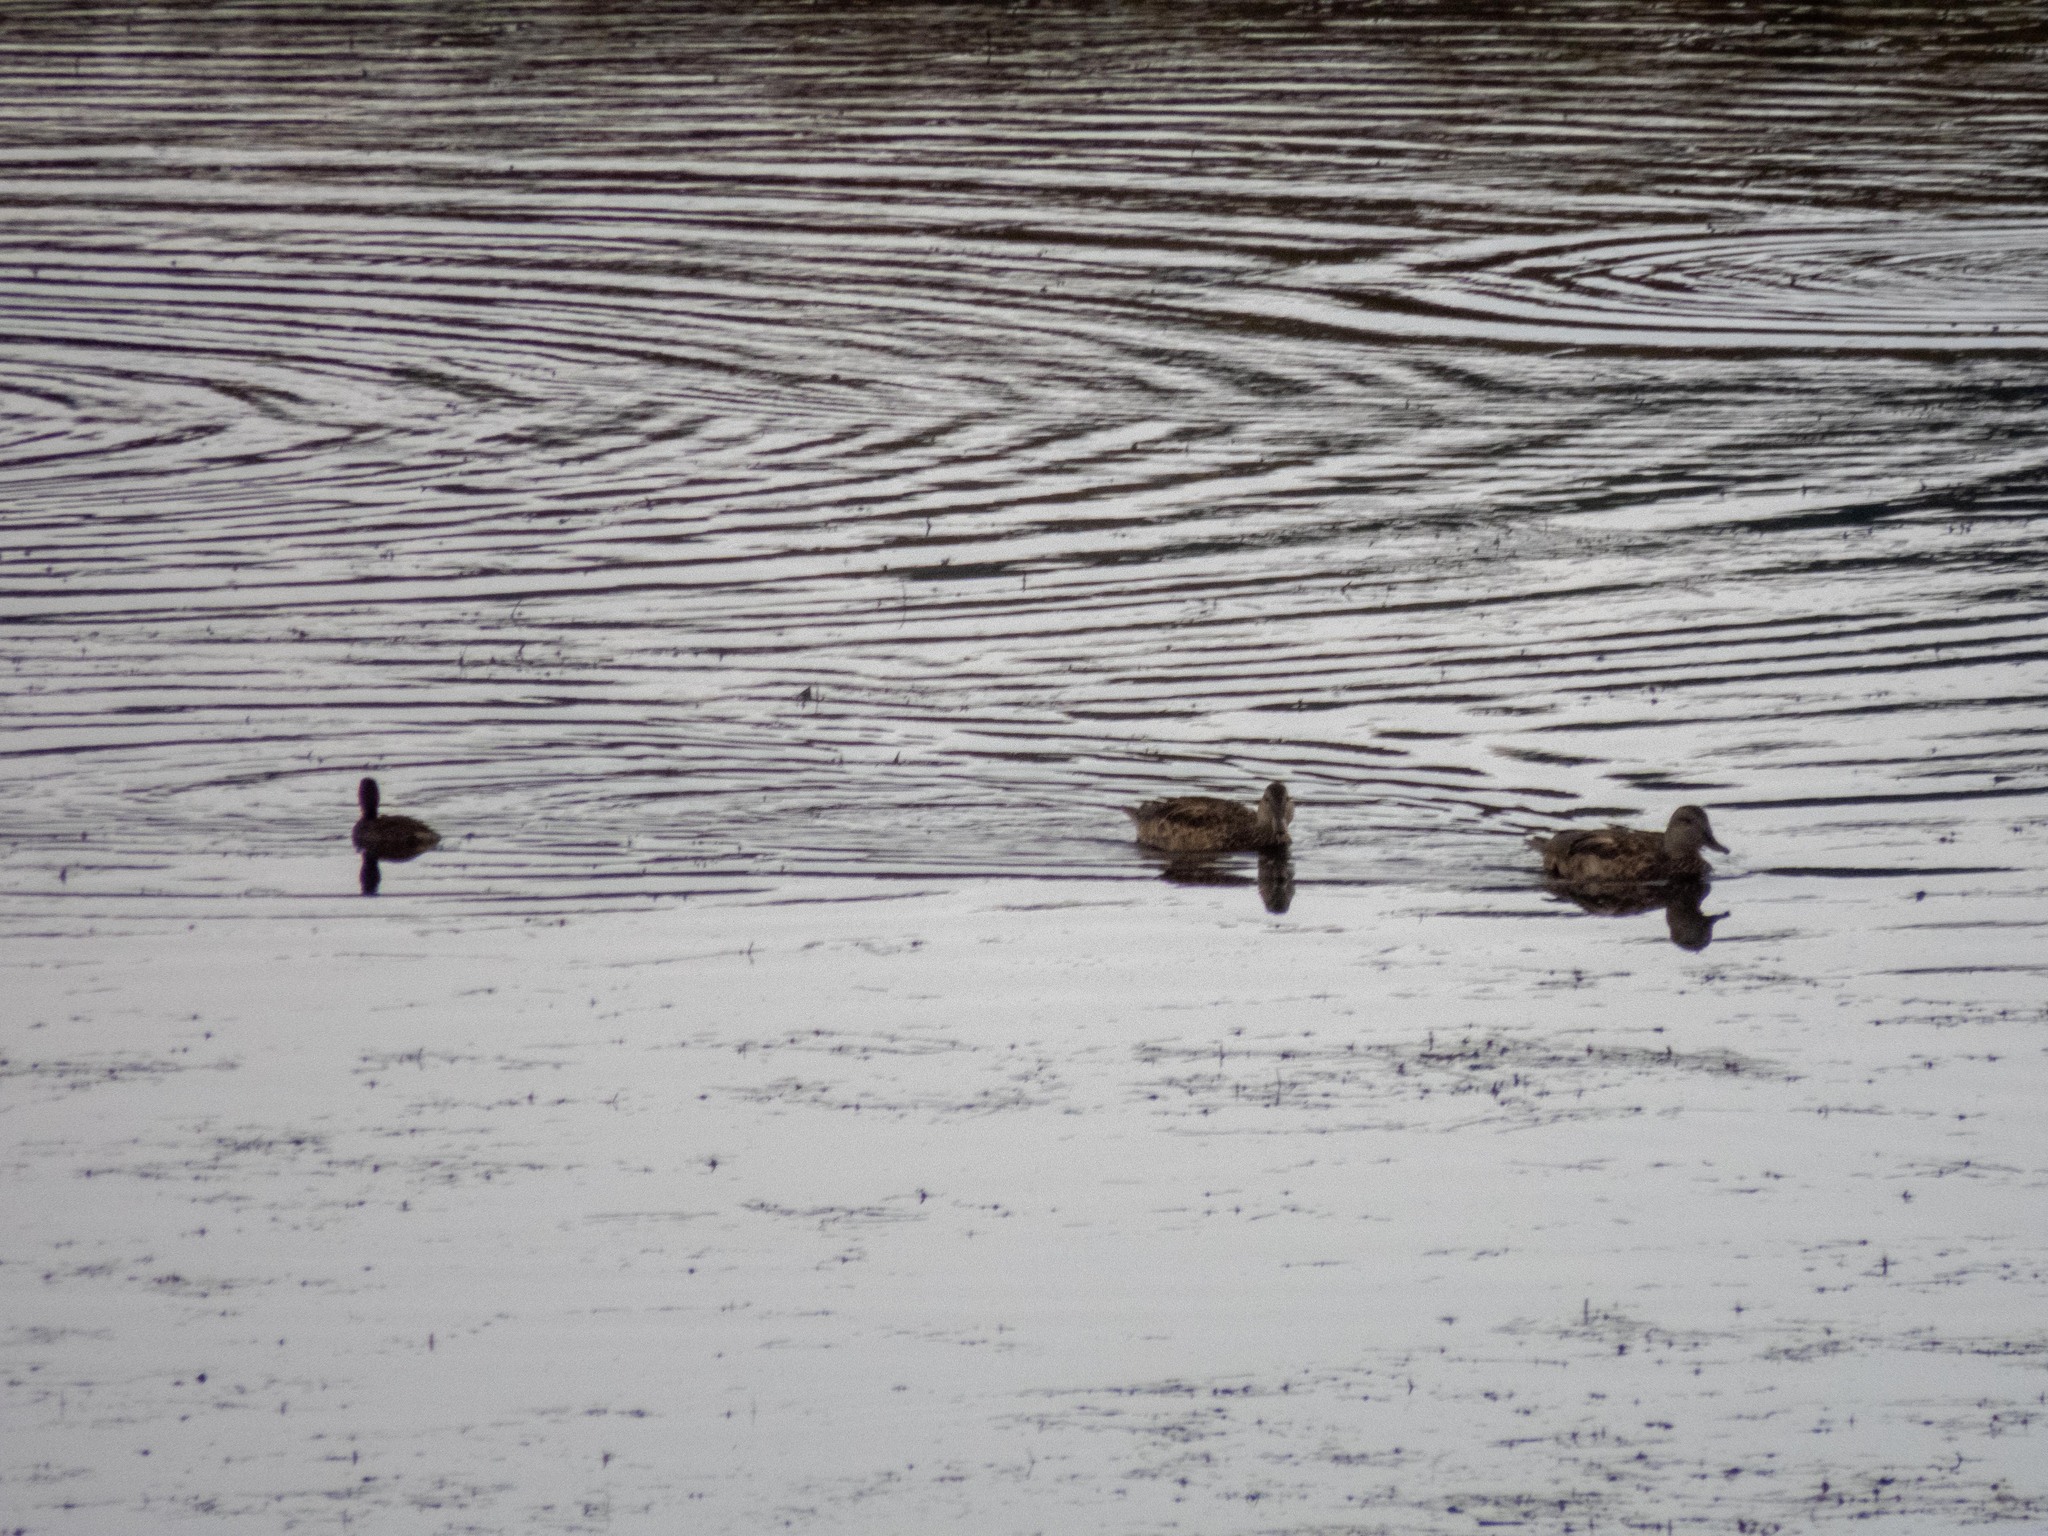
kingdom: Animalia
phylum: Chordata
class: Aves
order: Anseriformes
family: Anatidae
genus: Anas
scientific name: Anas platyrhynchos
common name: Mallard
